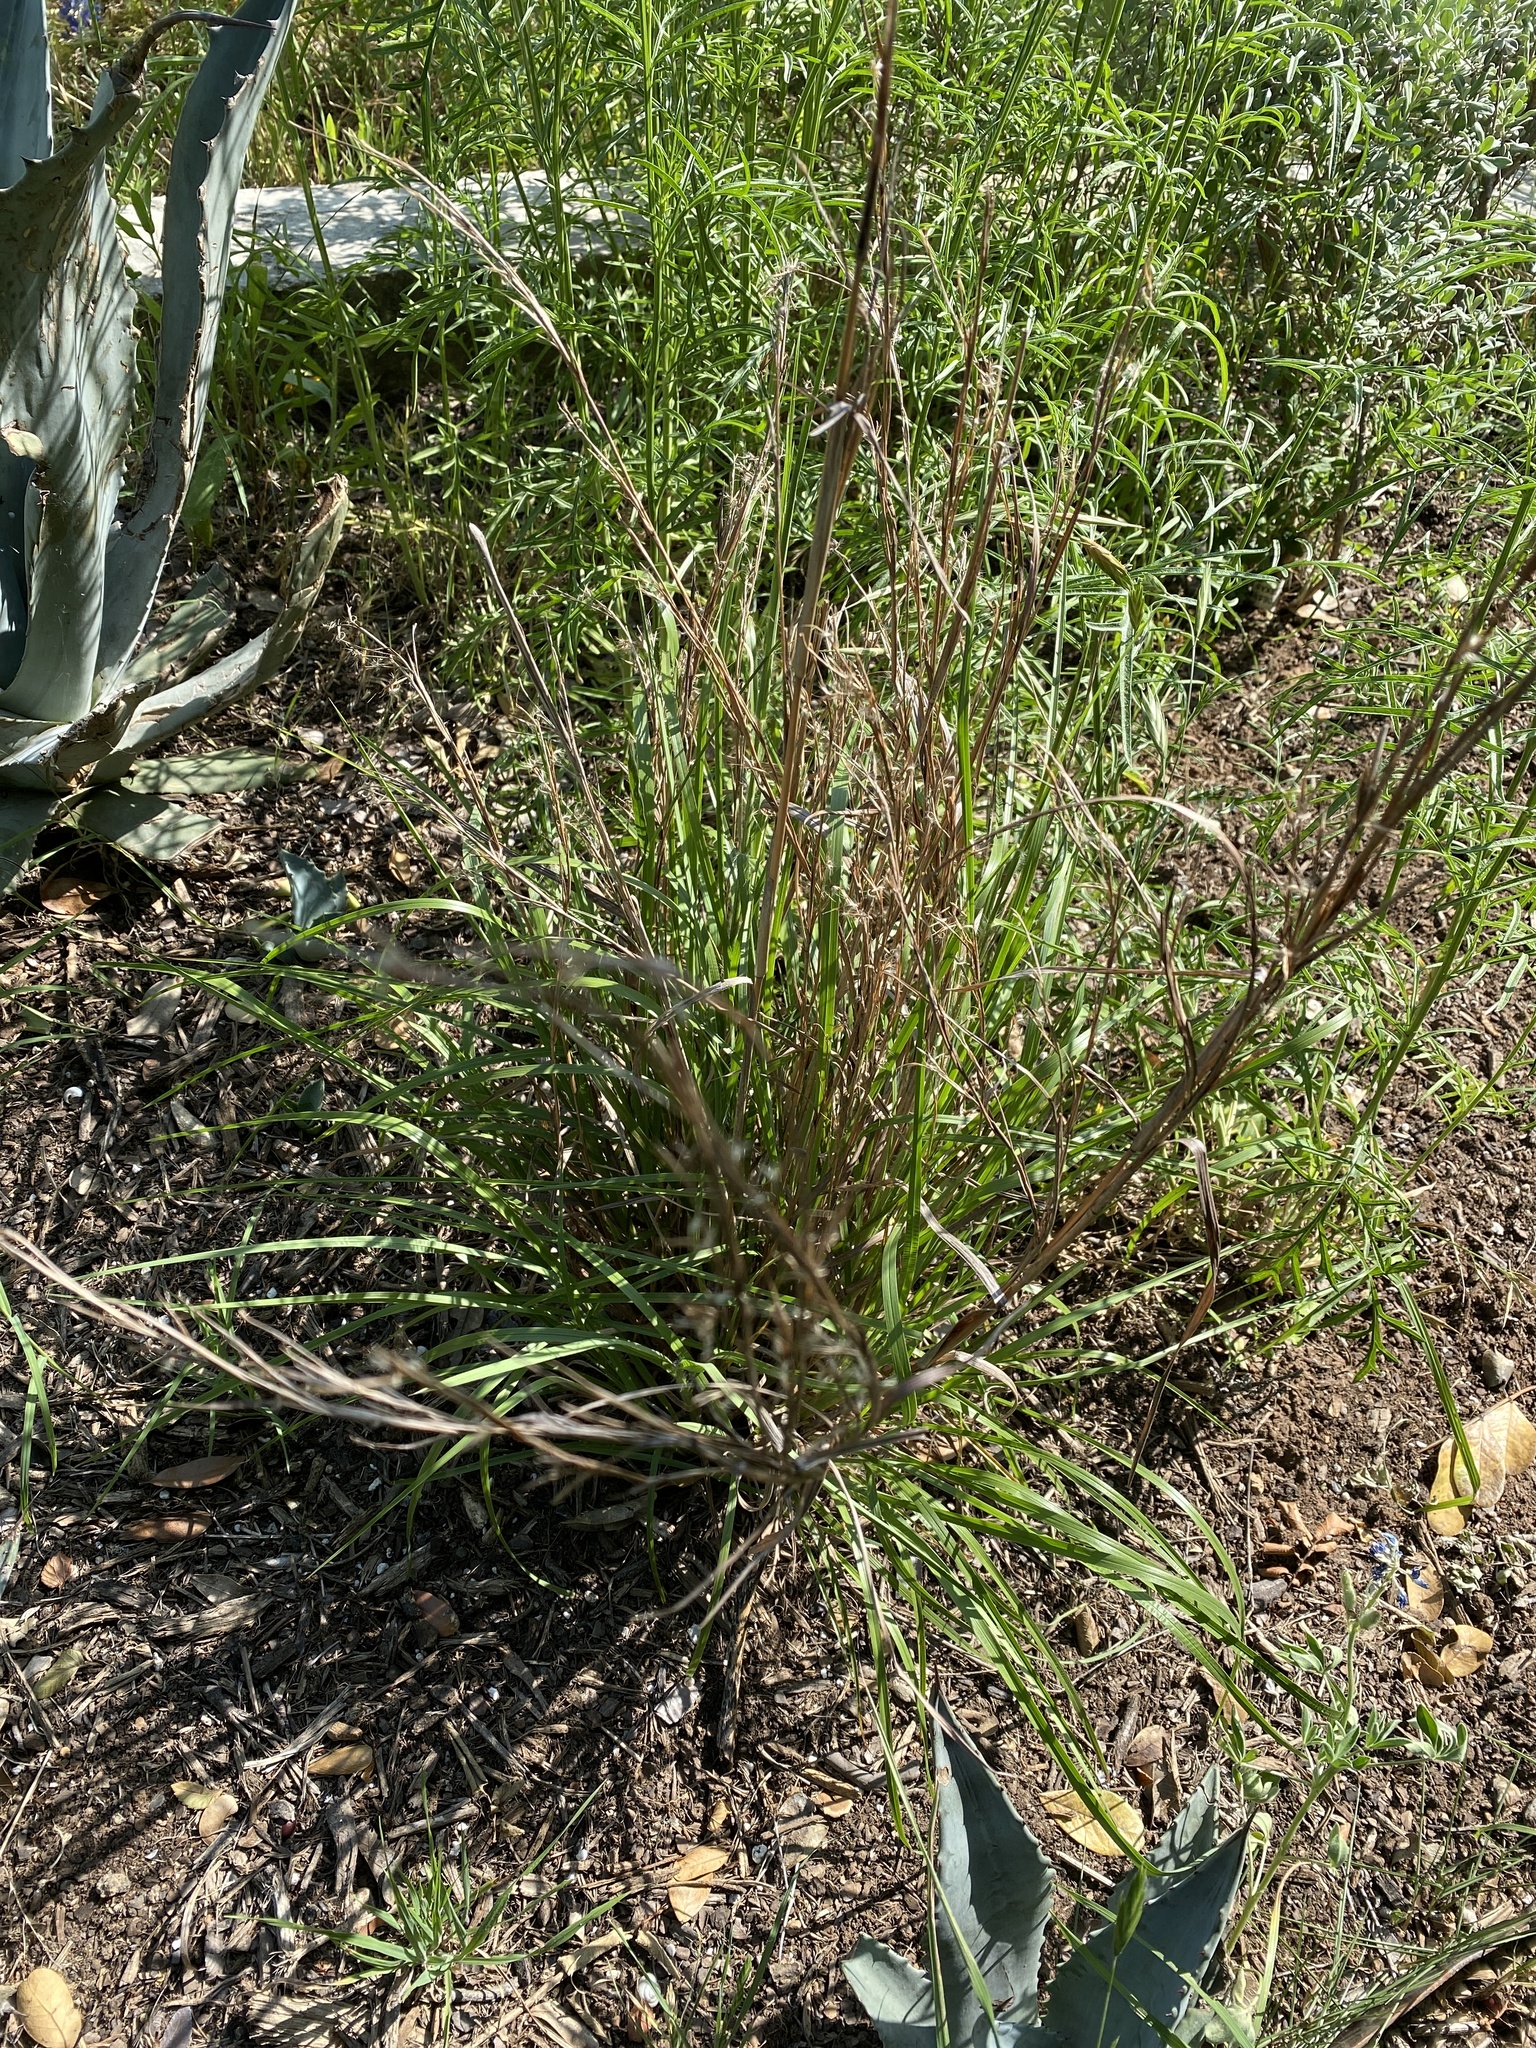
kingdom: Plantae
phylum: Tracheophyta
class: Liliopsida
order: Poales
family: Poaceae
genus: Schizachyrium
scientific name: Schizachyrium scoparium
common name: Little bluestem
